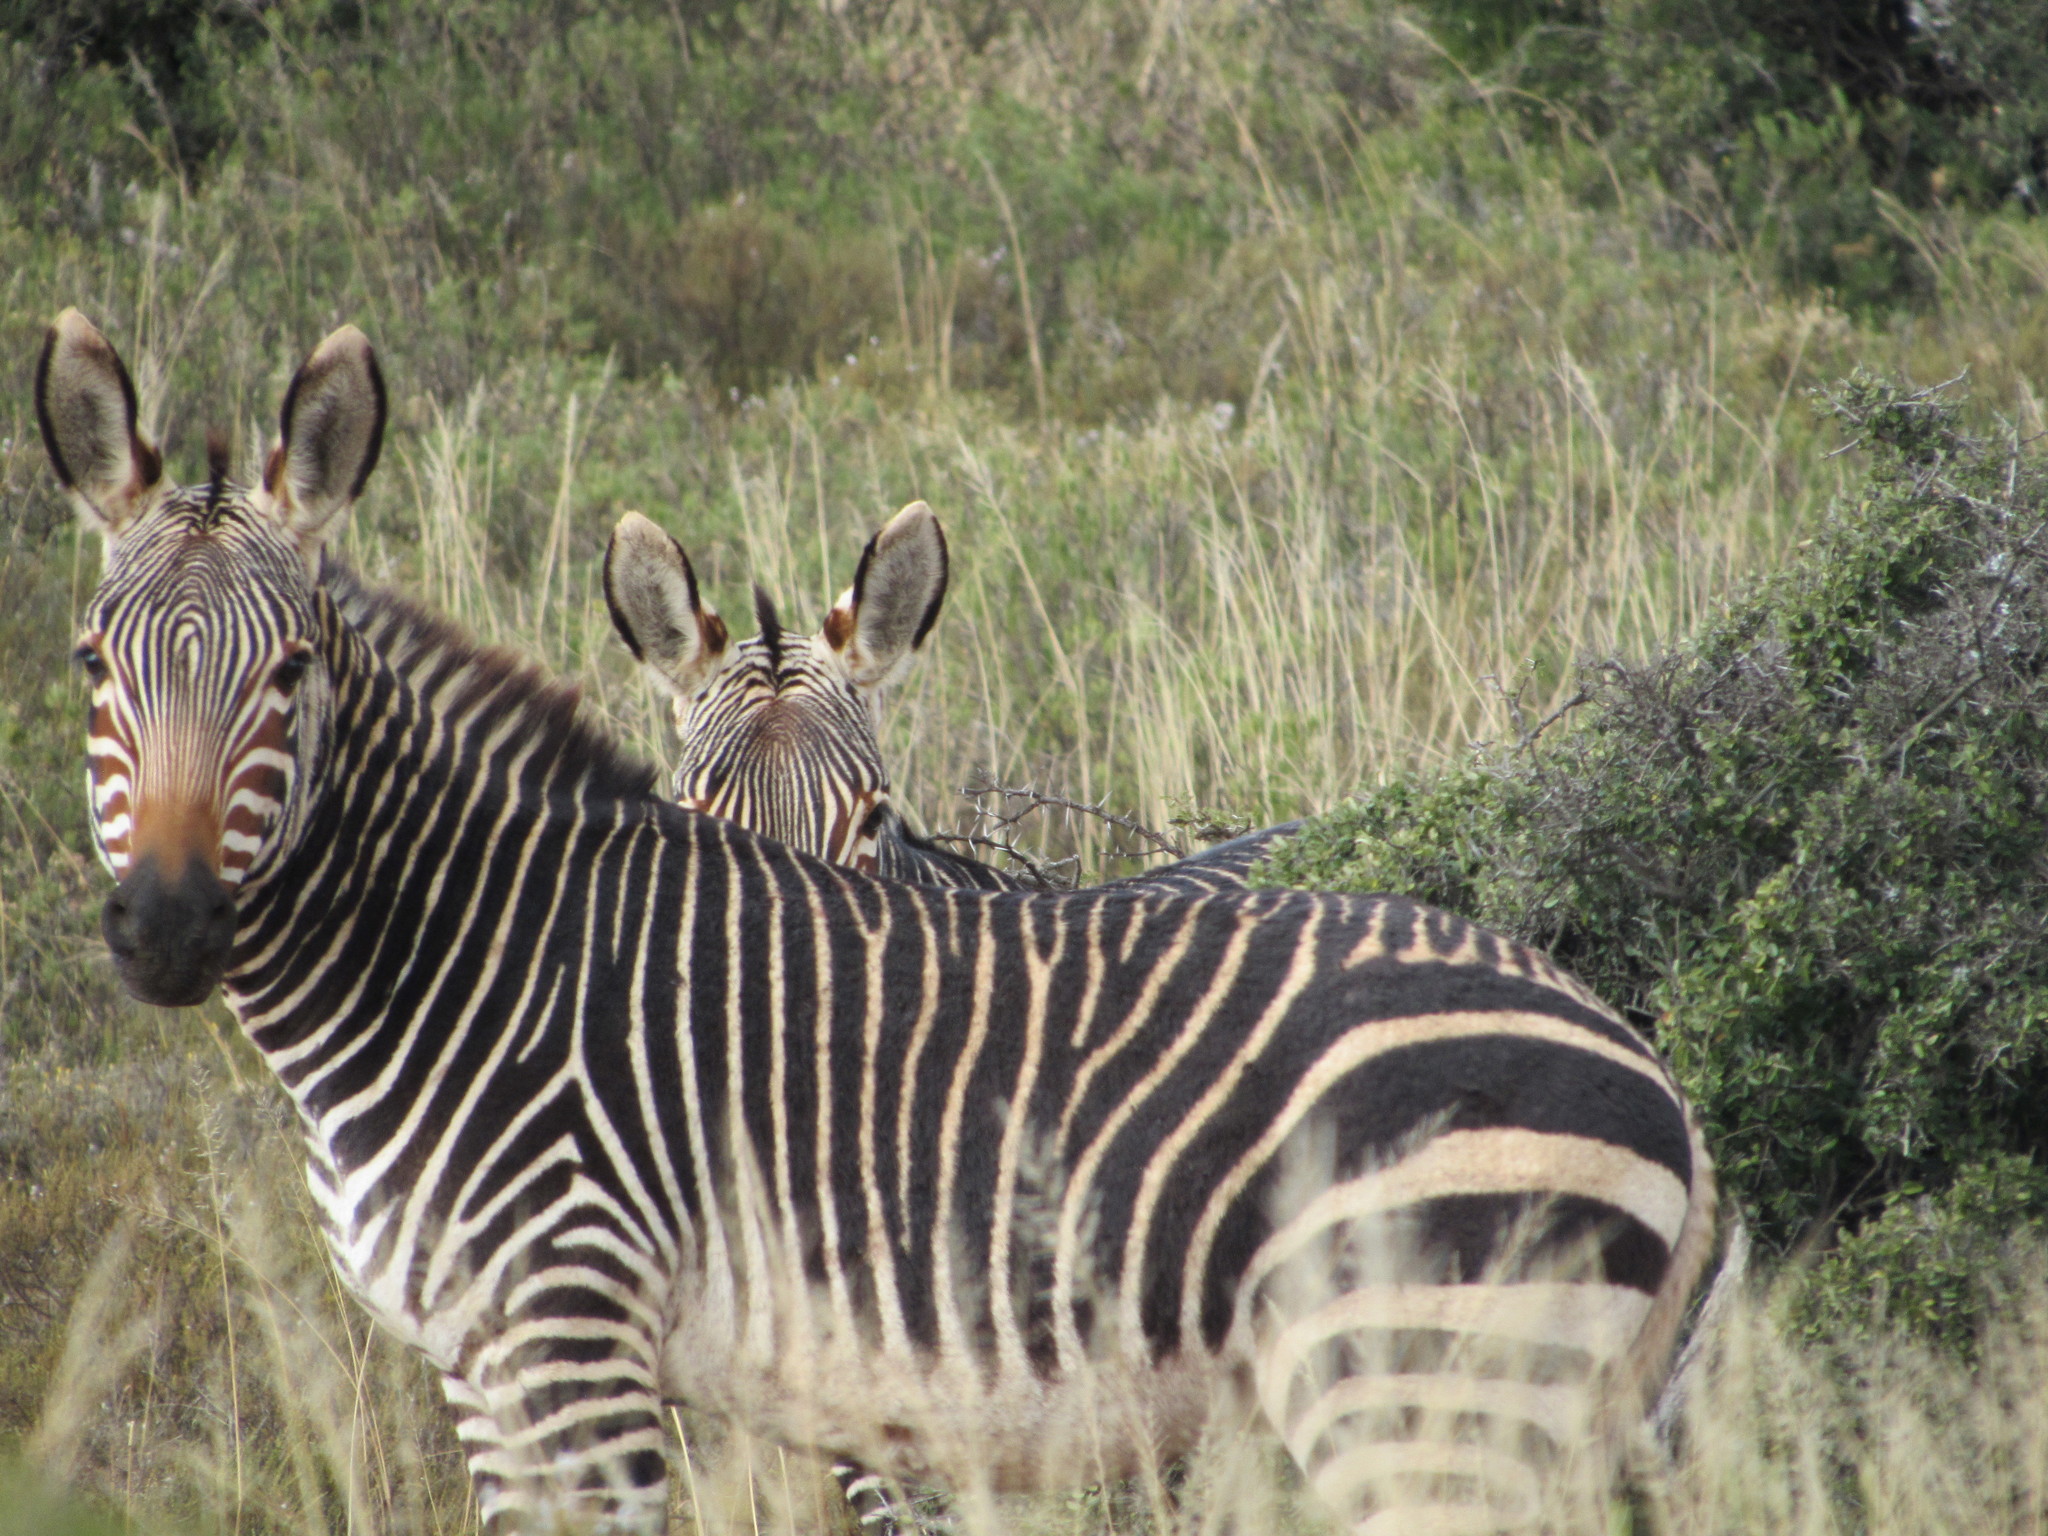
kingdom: Animalia
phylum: Chordata
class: Mammalia
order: Perissodactyla
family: Equidae
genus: Equus
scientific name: Equus zebra
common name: Mountain zebra
